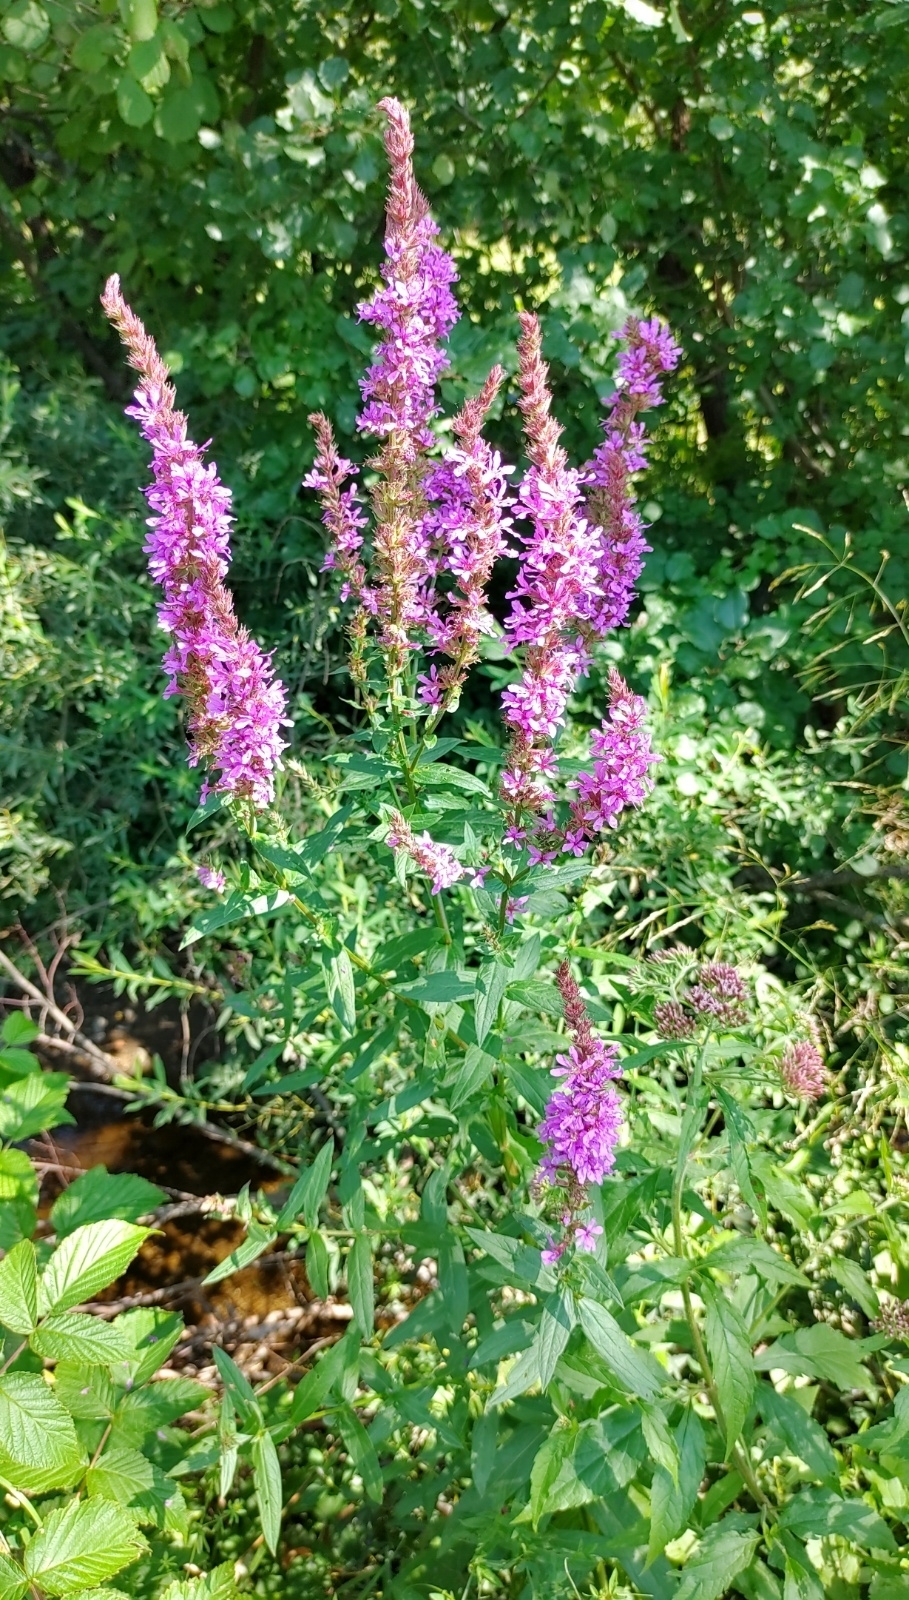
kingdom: Plantae
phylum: Tracheophyta
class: Magnoliopsida
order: Myrtales
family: Lythraceae
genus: Lythrum
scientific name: Lythrum salicaria
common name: Purple loosestrife
